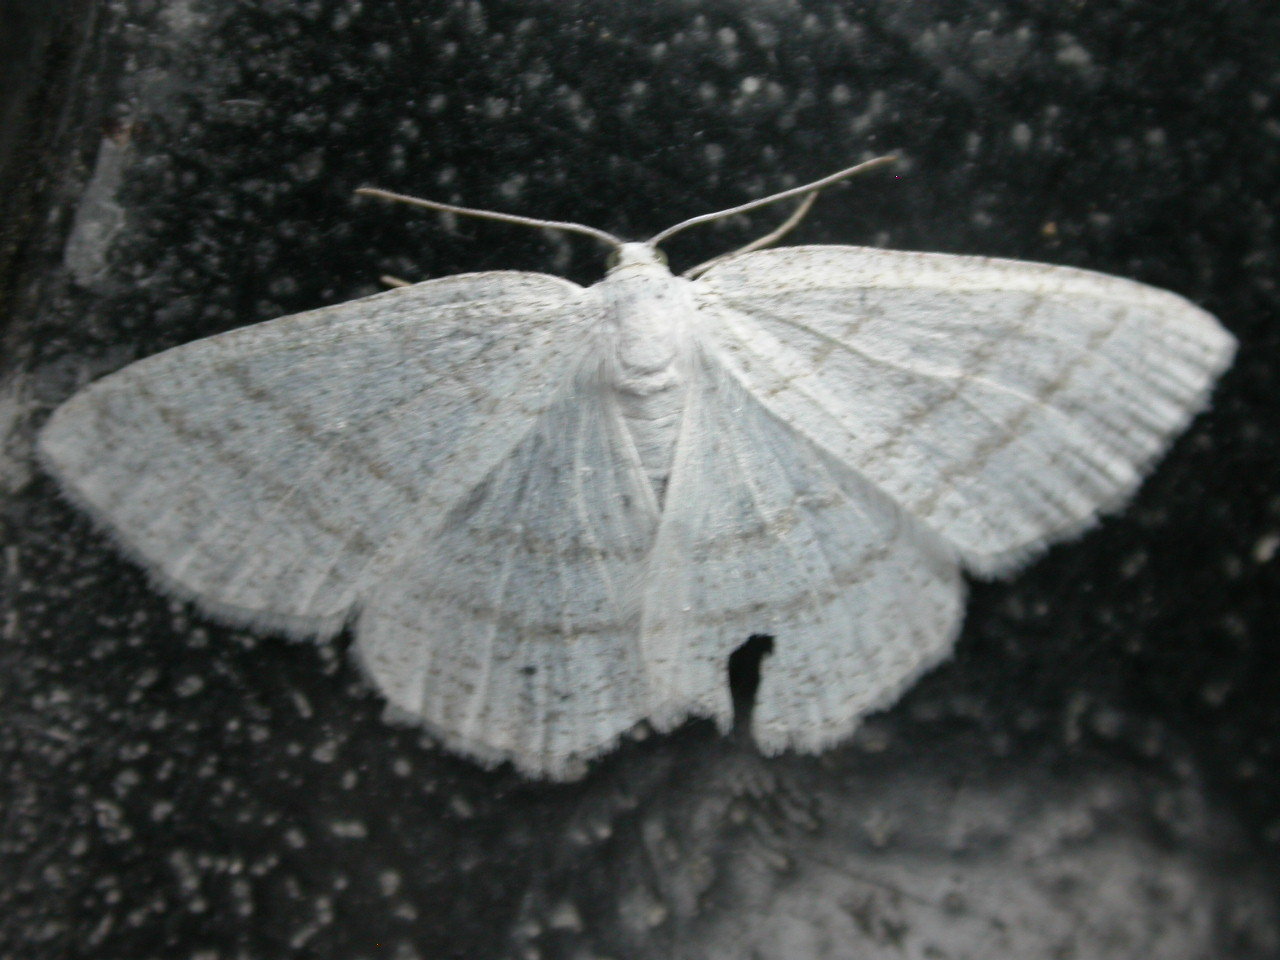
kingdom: Animalia
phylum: Arthropoda
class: Insecta
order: Lepidoptera
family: Geometridae
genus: Cabera
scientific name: Cabera pusaria
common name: Common white wave
